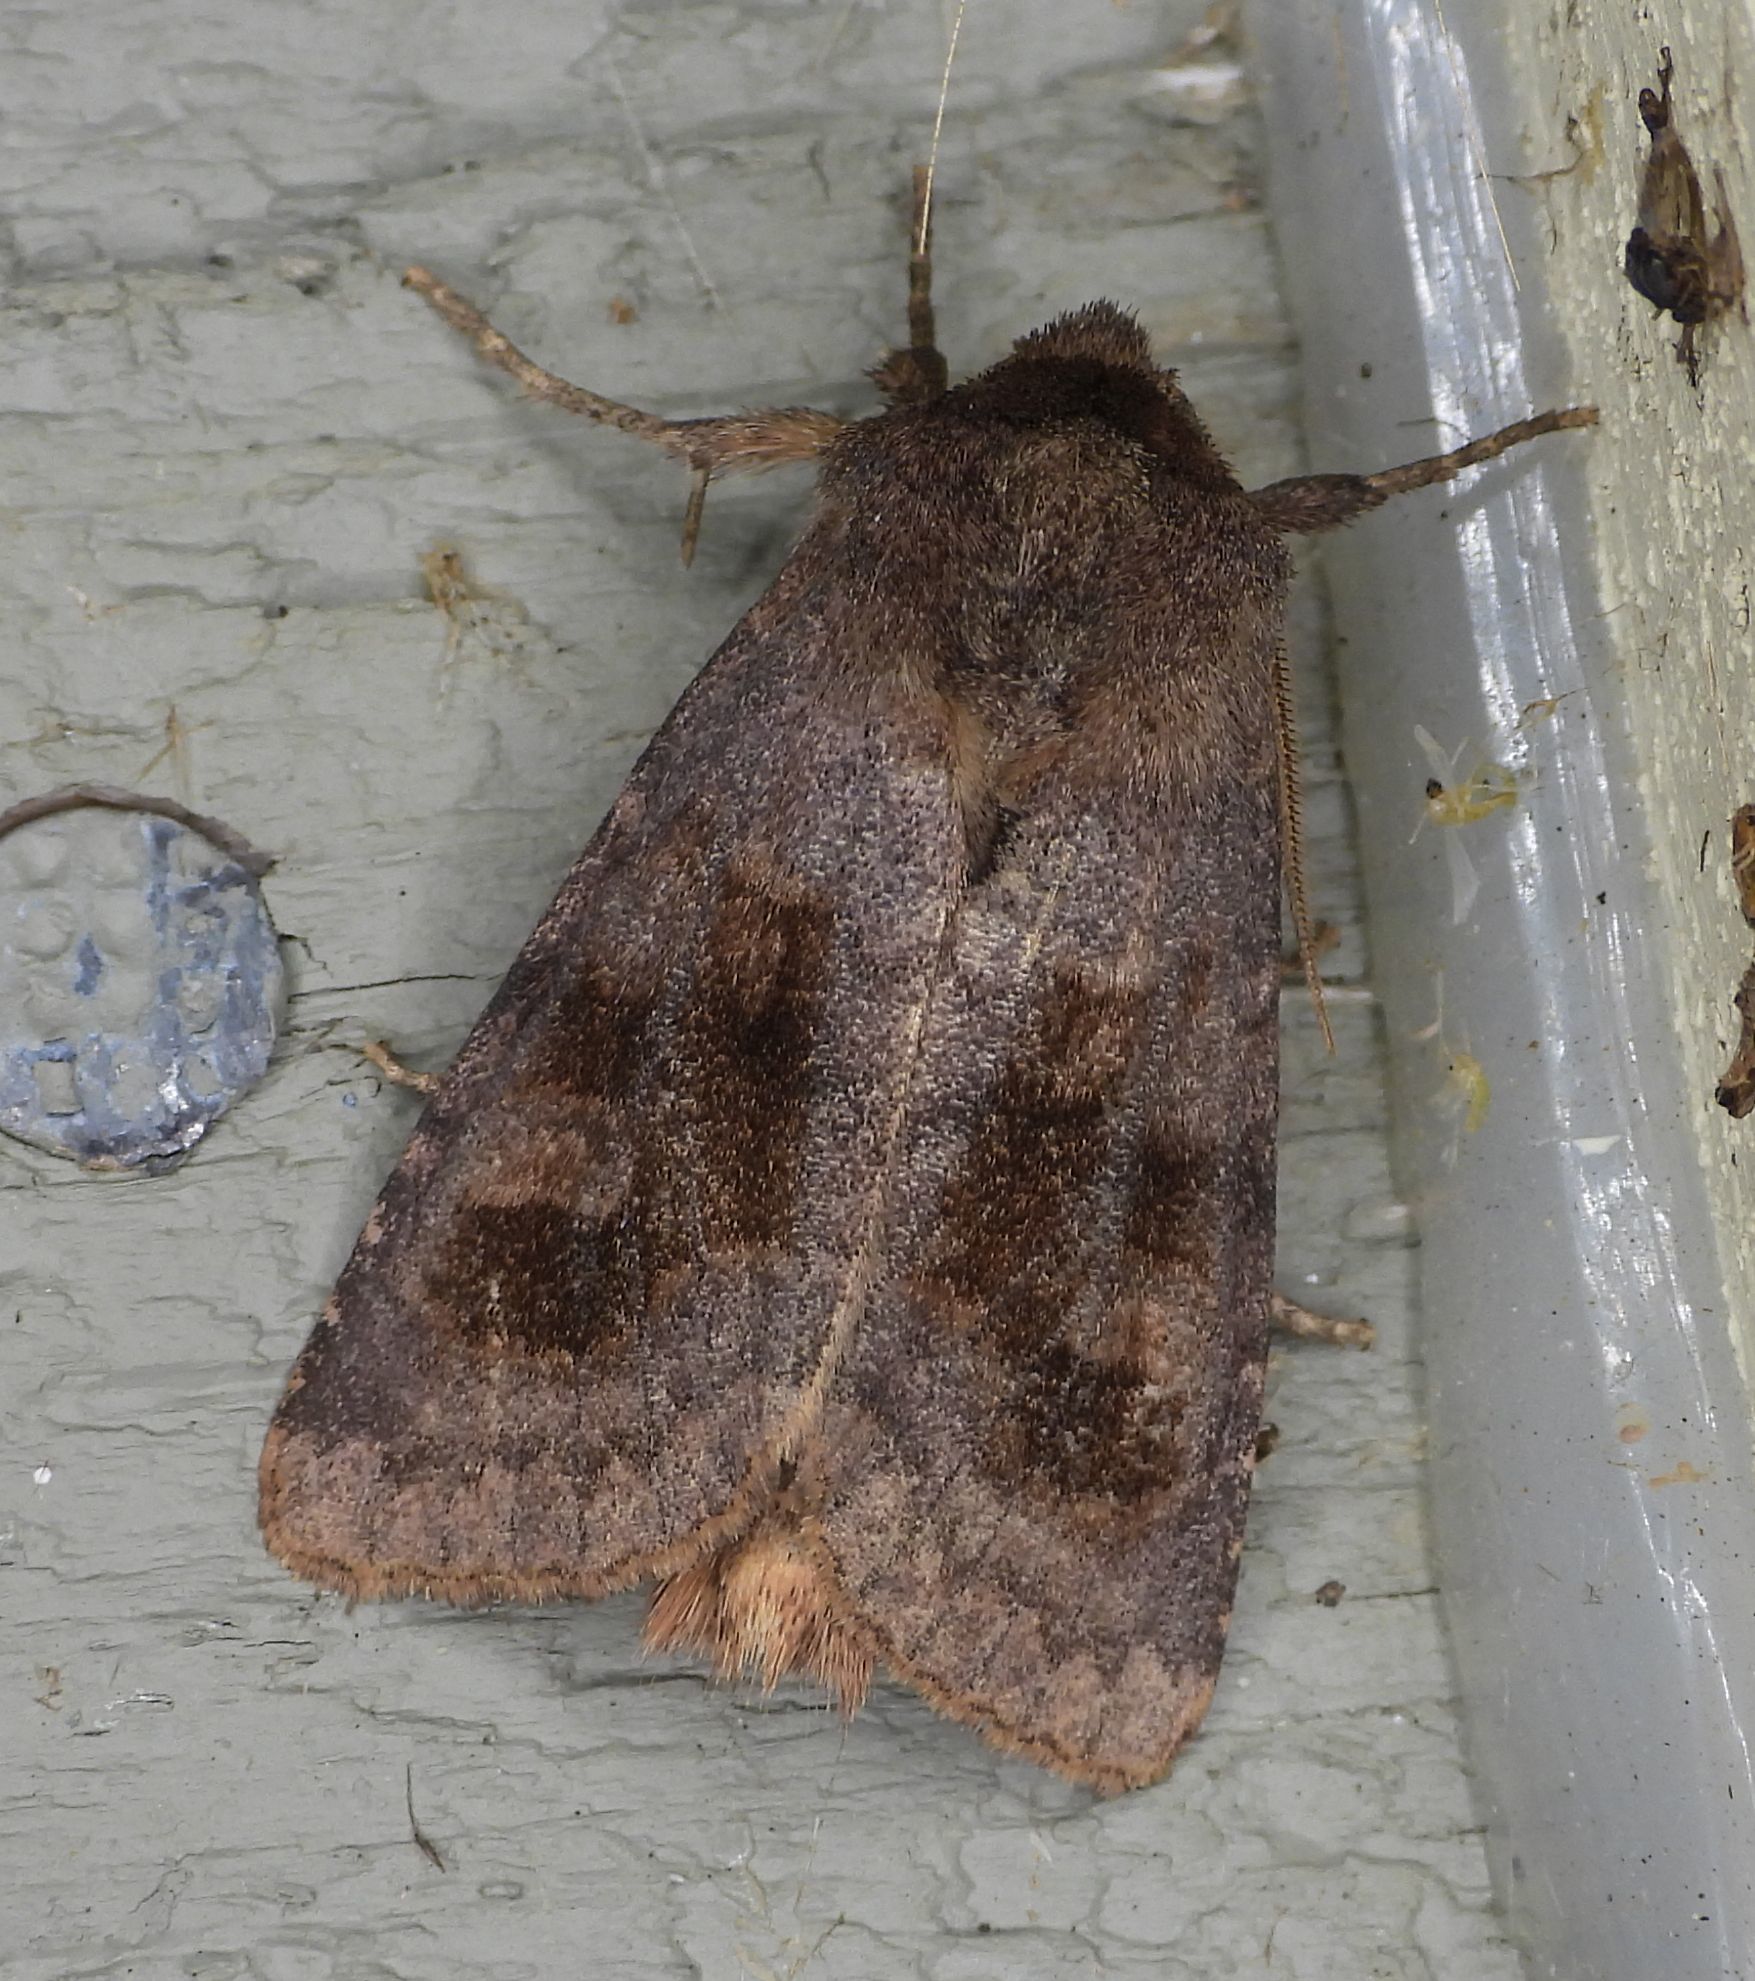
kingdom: Animalia
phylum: Arthropoda
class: Insecta
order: Lepidoptera
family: Noctuidae
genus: Nephelodes
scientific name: Nephelodes minians
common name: Bronzed cutworm
